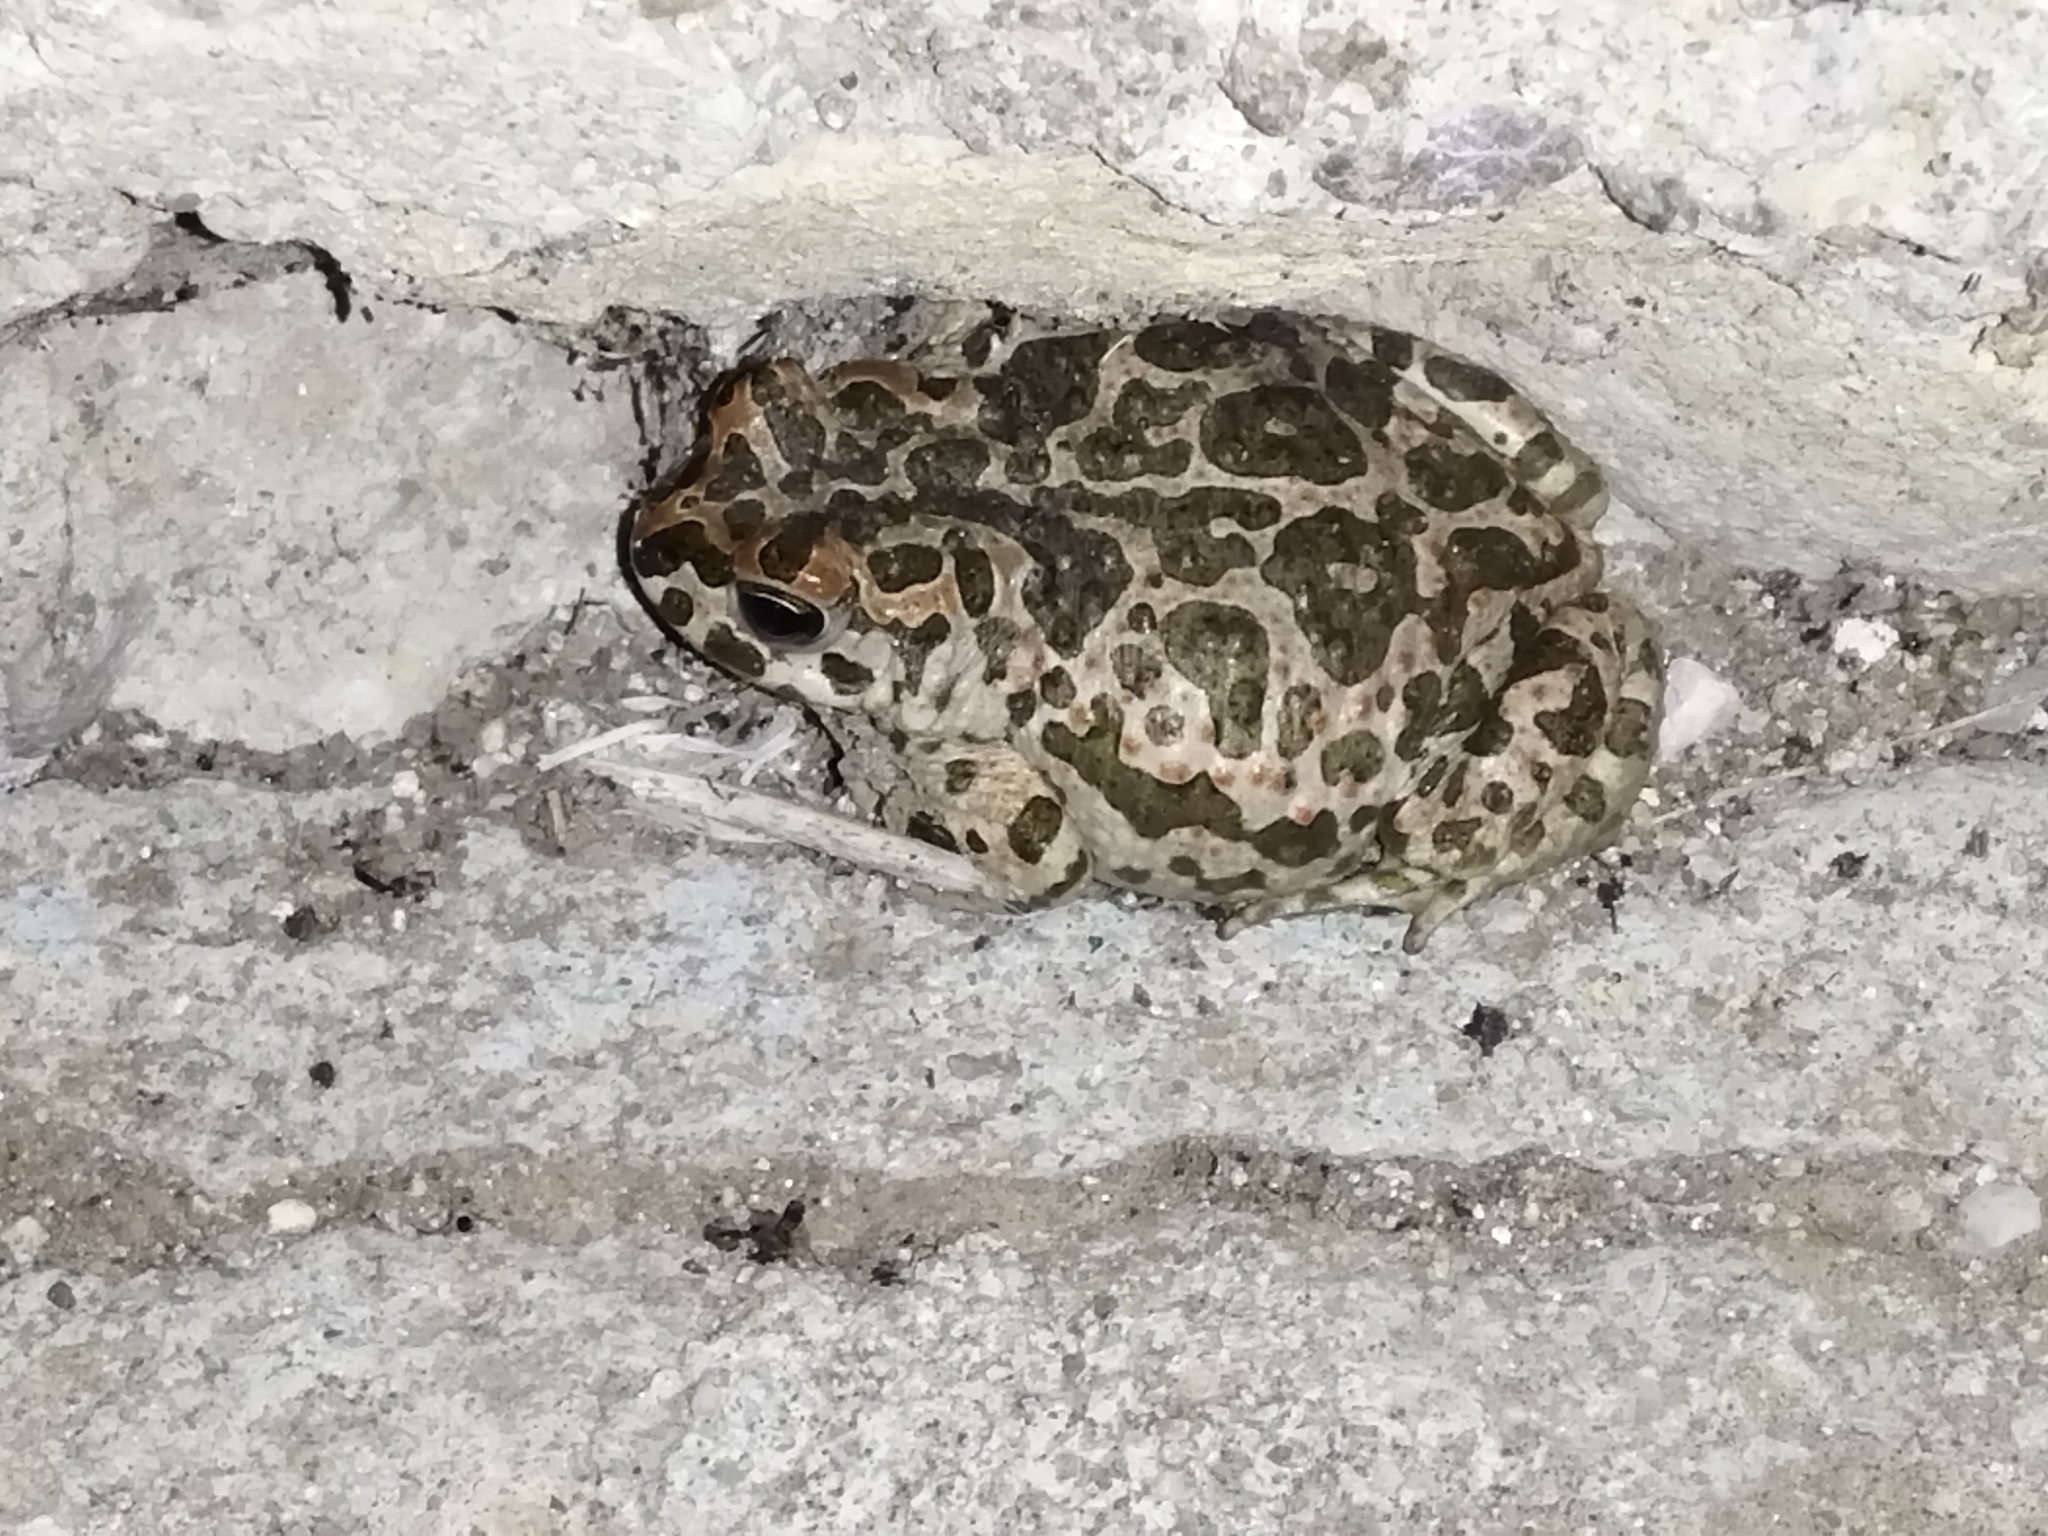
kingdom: Animalia
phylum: Chordata
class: Amphibia
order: Anura
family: Bufonidae
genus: Bufotes
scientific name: Bufotes viridis
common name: European green toad
